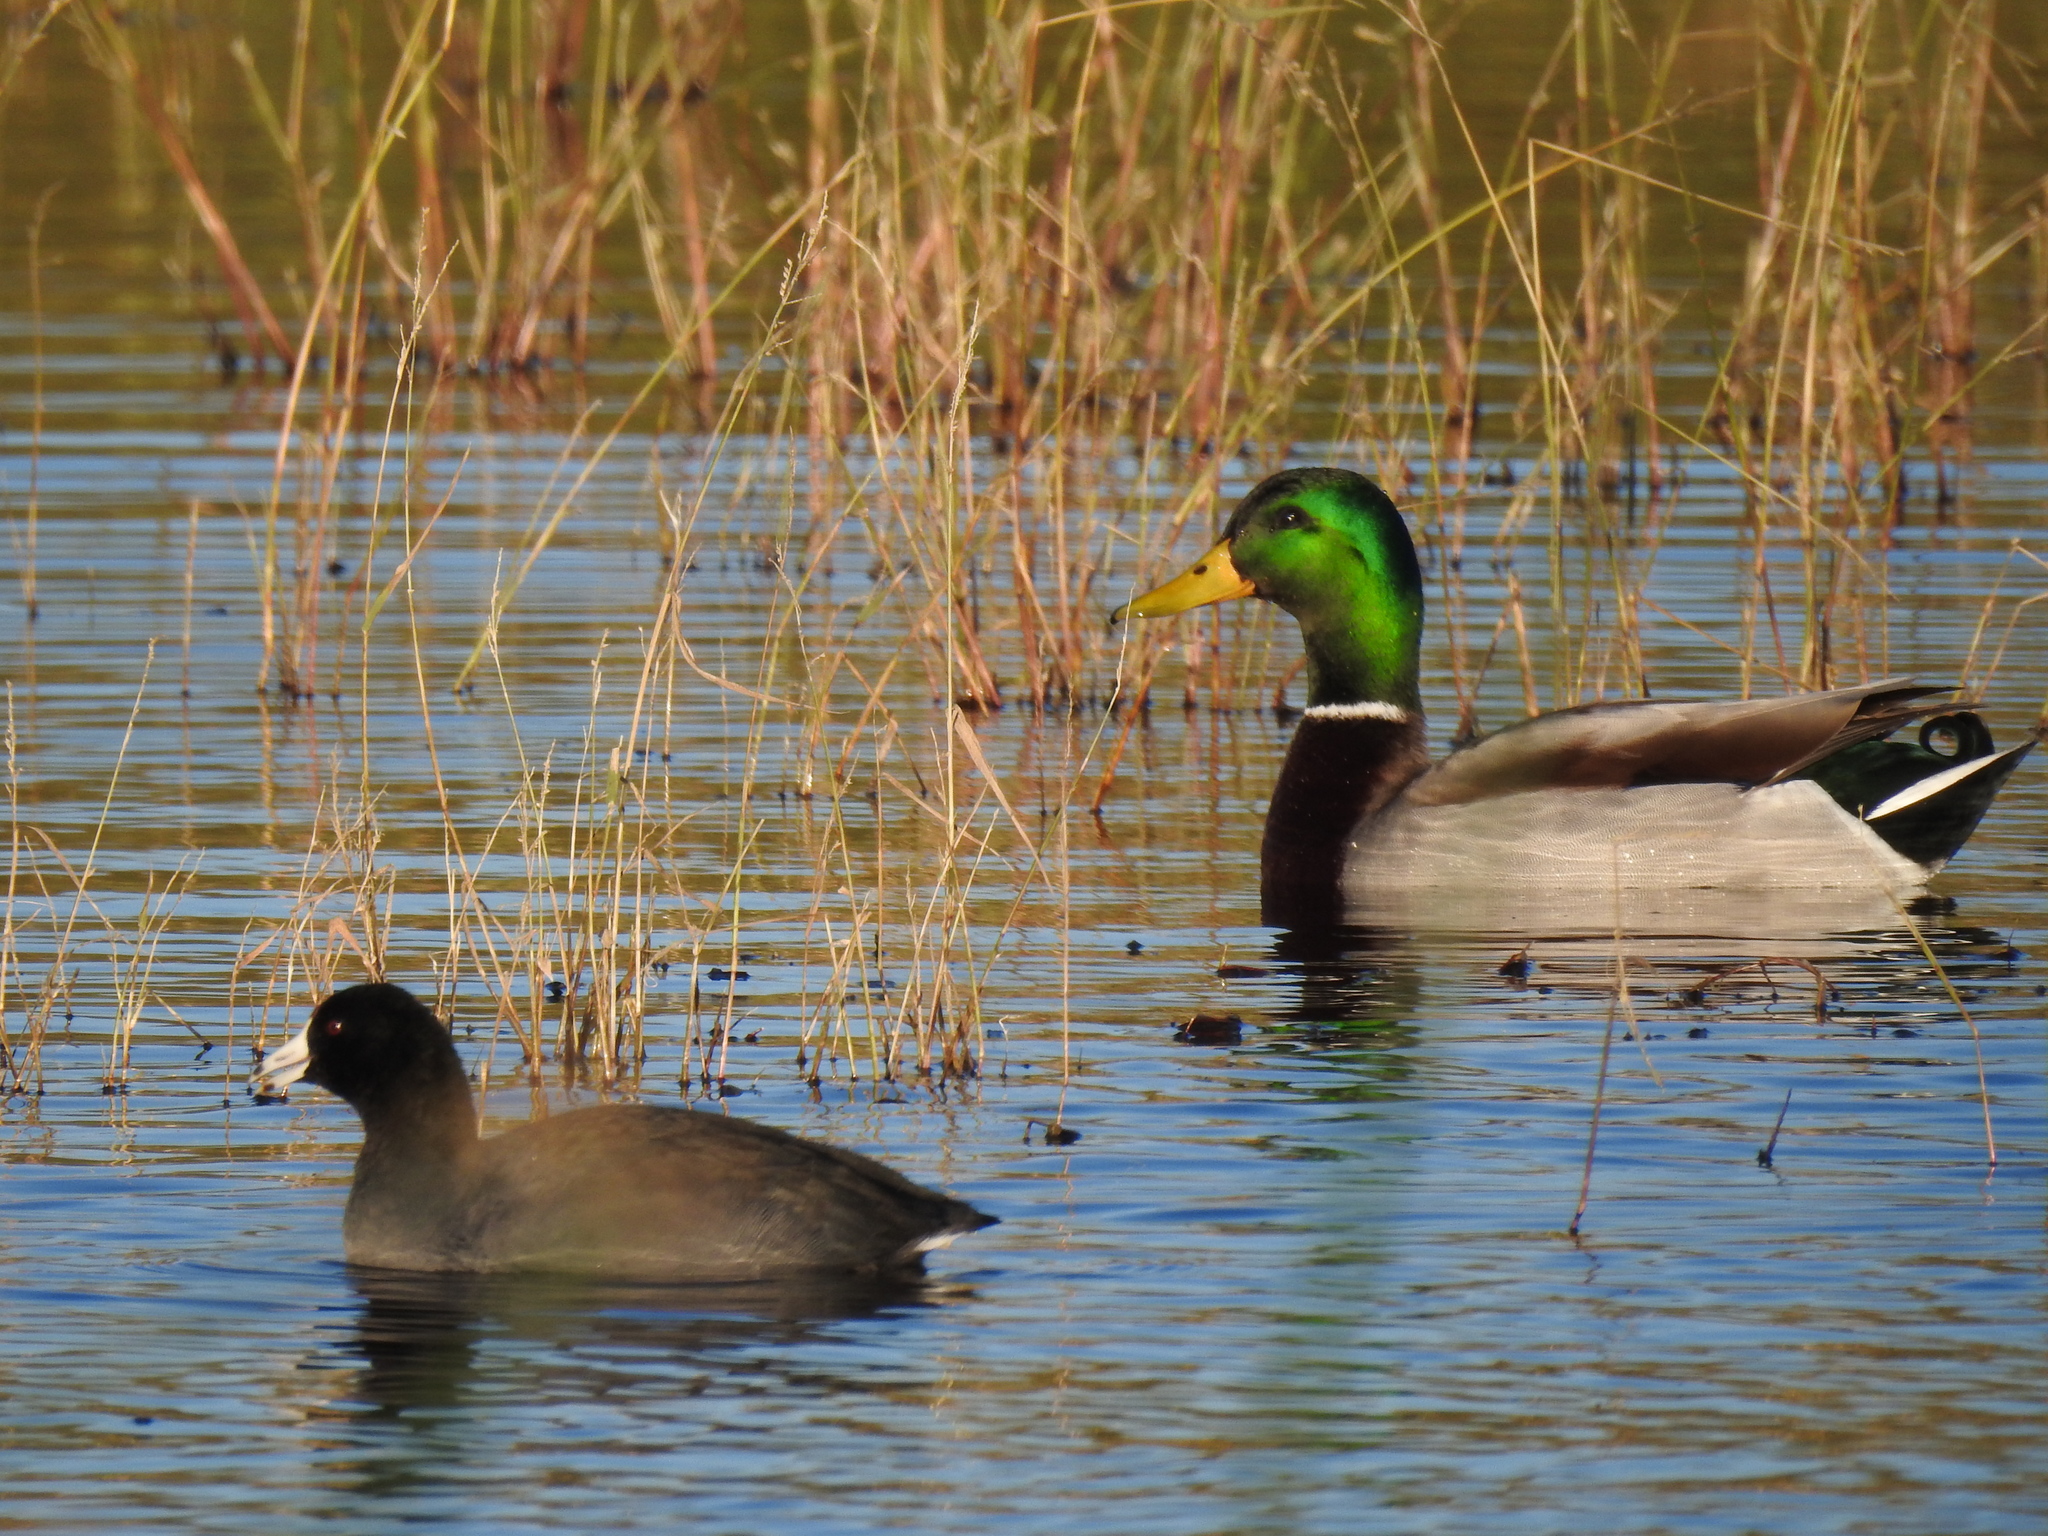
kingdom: Animalia
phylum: Chordata
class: Aves
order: Anseriformes
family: Anatidae
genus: Anas
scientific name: Anas platyrhynchos
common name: Mallard
